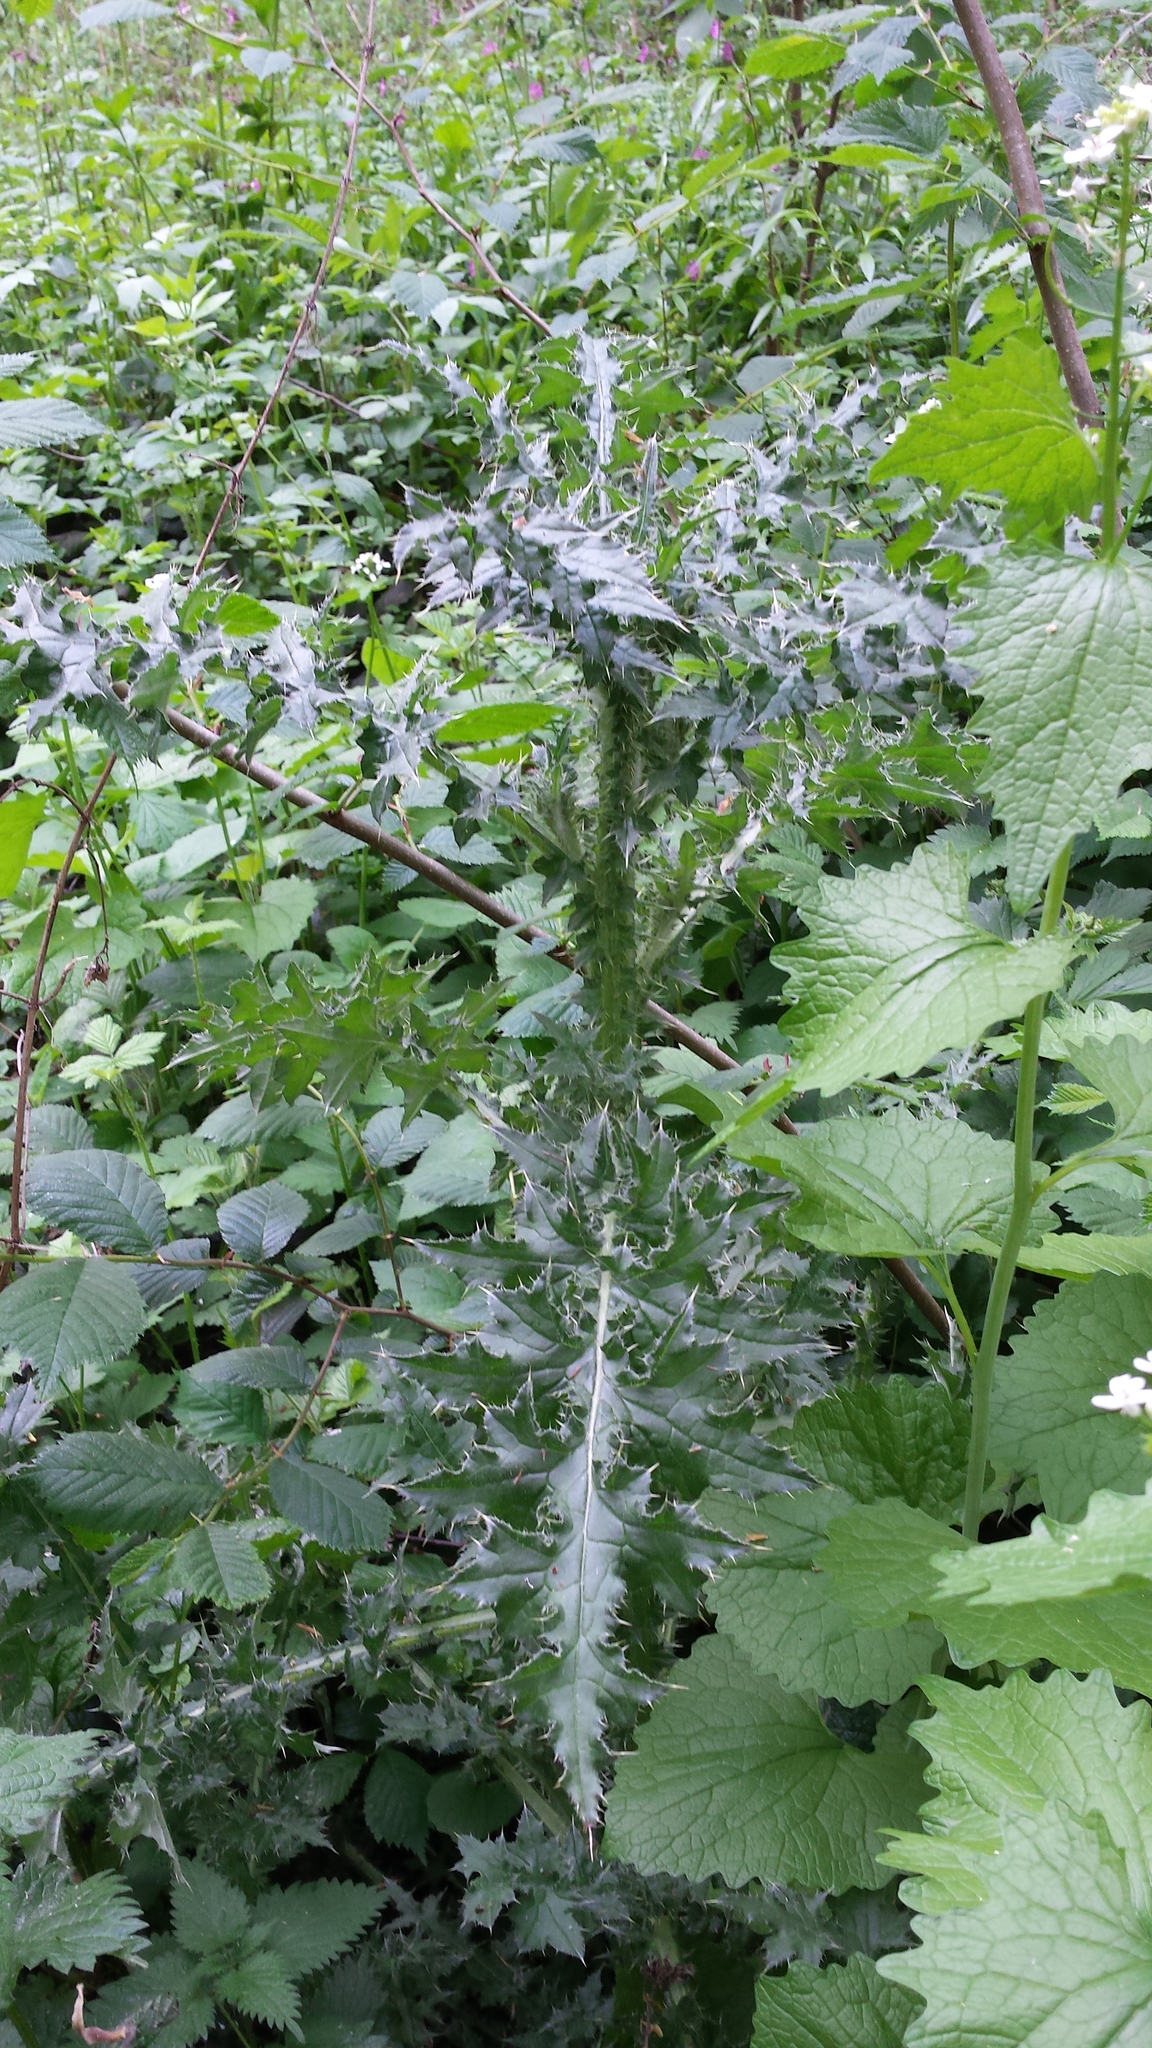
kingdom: Plantae
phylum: Tracheophyta
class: Magnoliopsida
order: Asterales
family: Asteraceae
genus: Cirsium
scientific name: Cirsium vulgare
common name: Bull thistle
